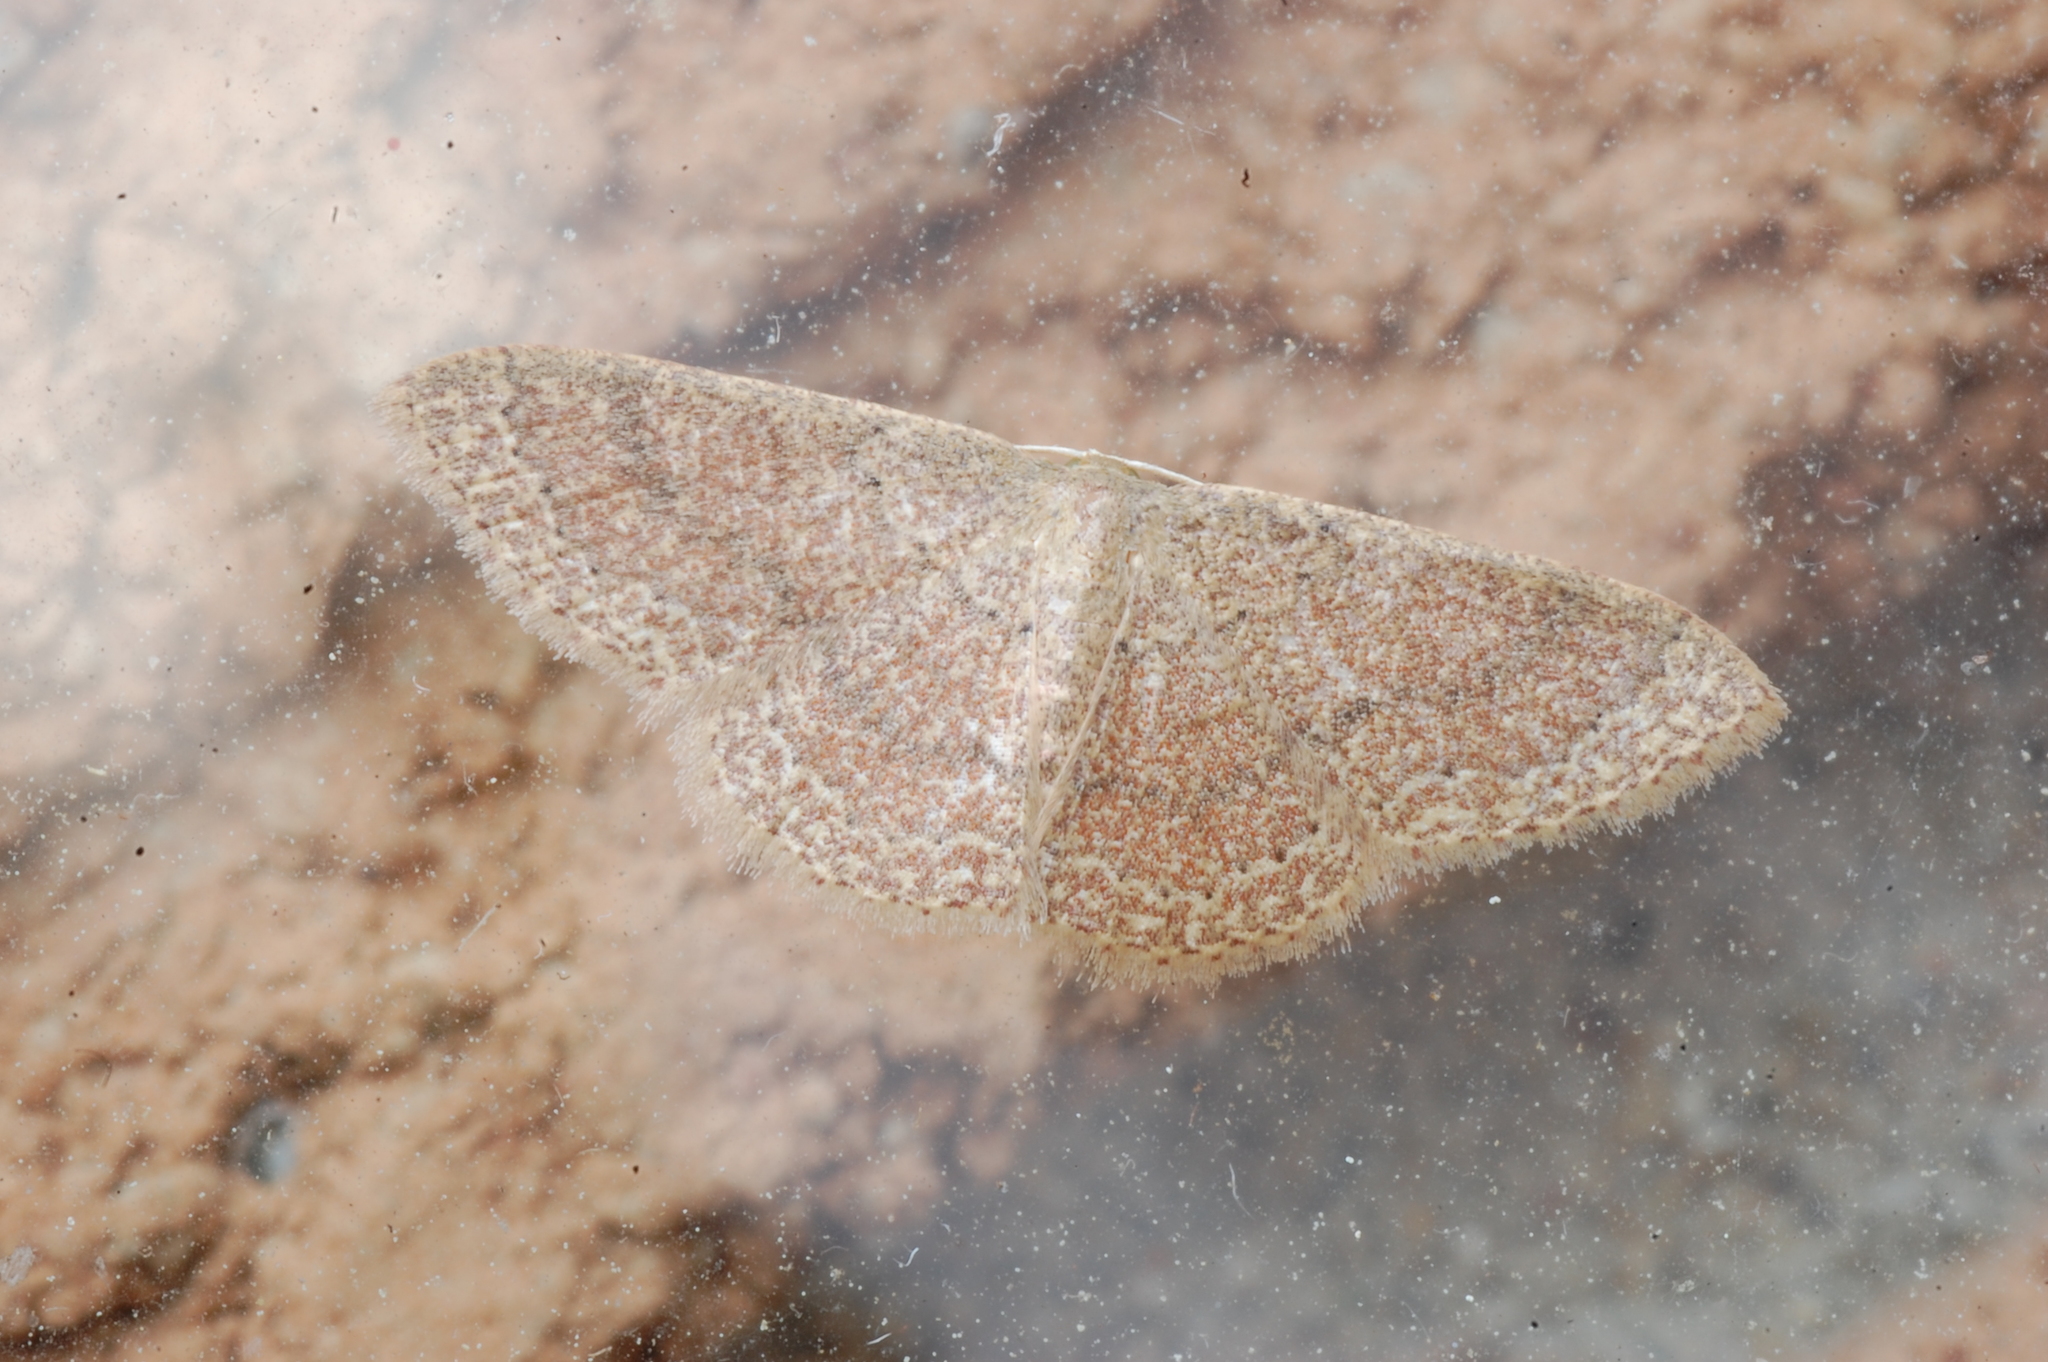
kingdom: Animalia
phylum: Arthropoda
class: Insecta
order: Lepidoptera
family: Geometridae
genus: Pleuroprucha
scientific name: Pleuroprucha insulsaria
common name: Common tan wave
